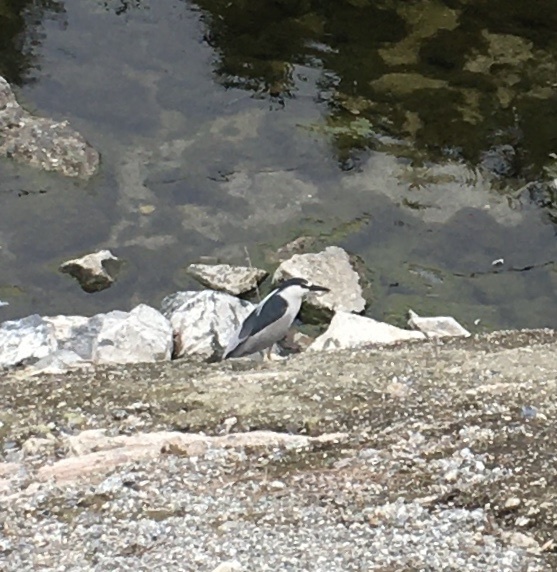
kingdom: Animalia
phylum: Chordata
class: Aves
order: Pelecaniformes
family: Ardeidae
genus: Nycticorax
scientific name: Nycticorax nycticorax
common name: Black-crowned night heron
